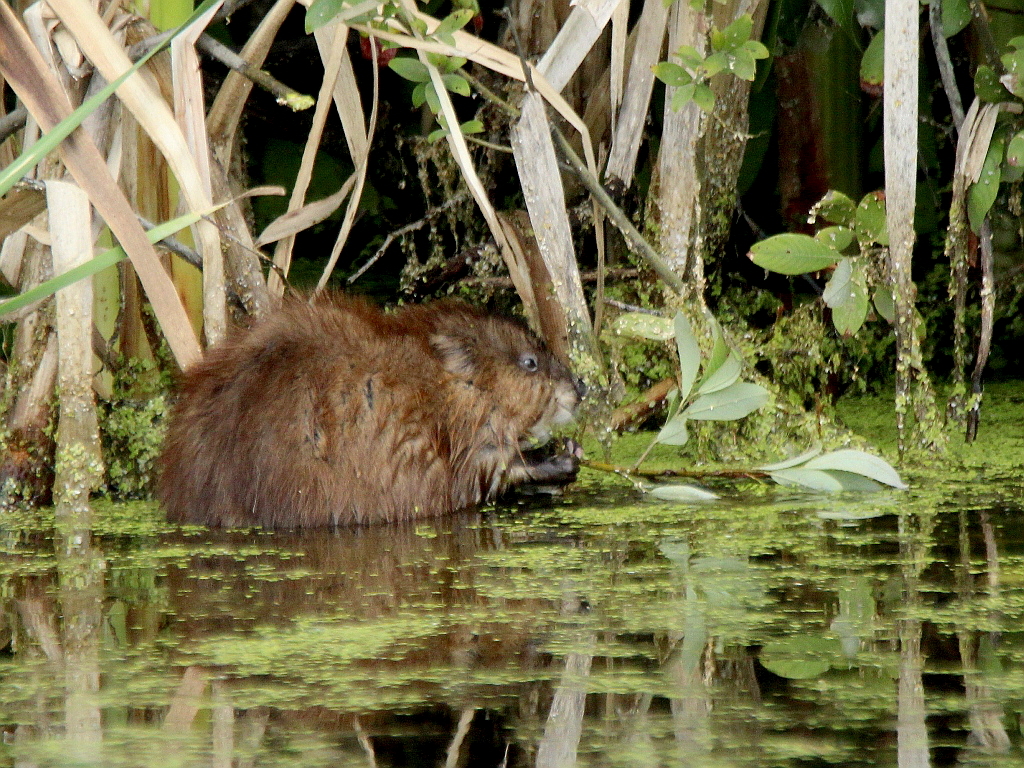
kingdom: Animalia
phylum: Chordata
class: Mammalia
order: Rodentia
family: Cricetidae
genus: Ondatra
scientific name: Ondatra zibethicus
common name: Muskrat
